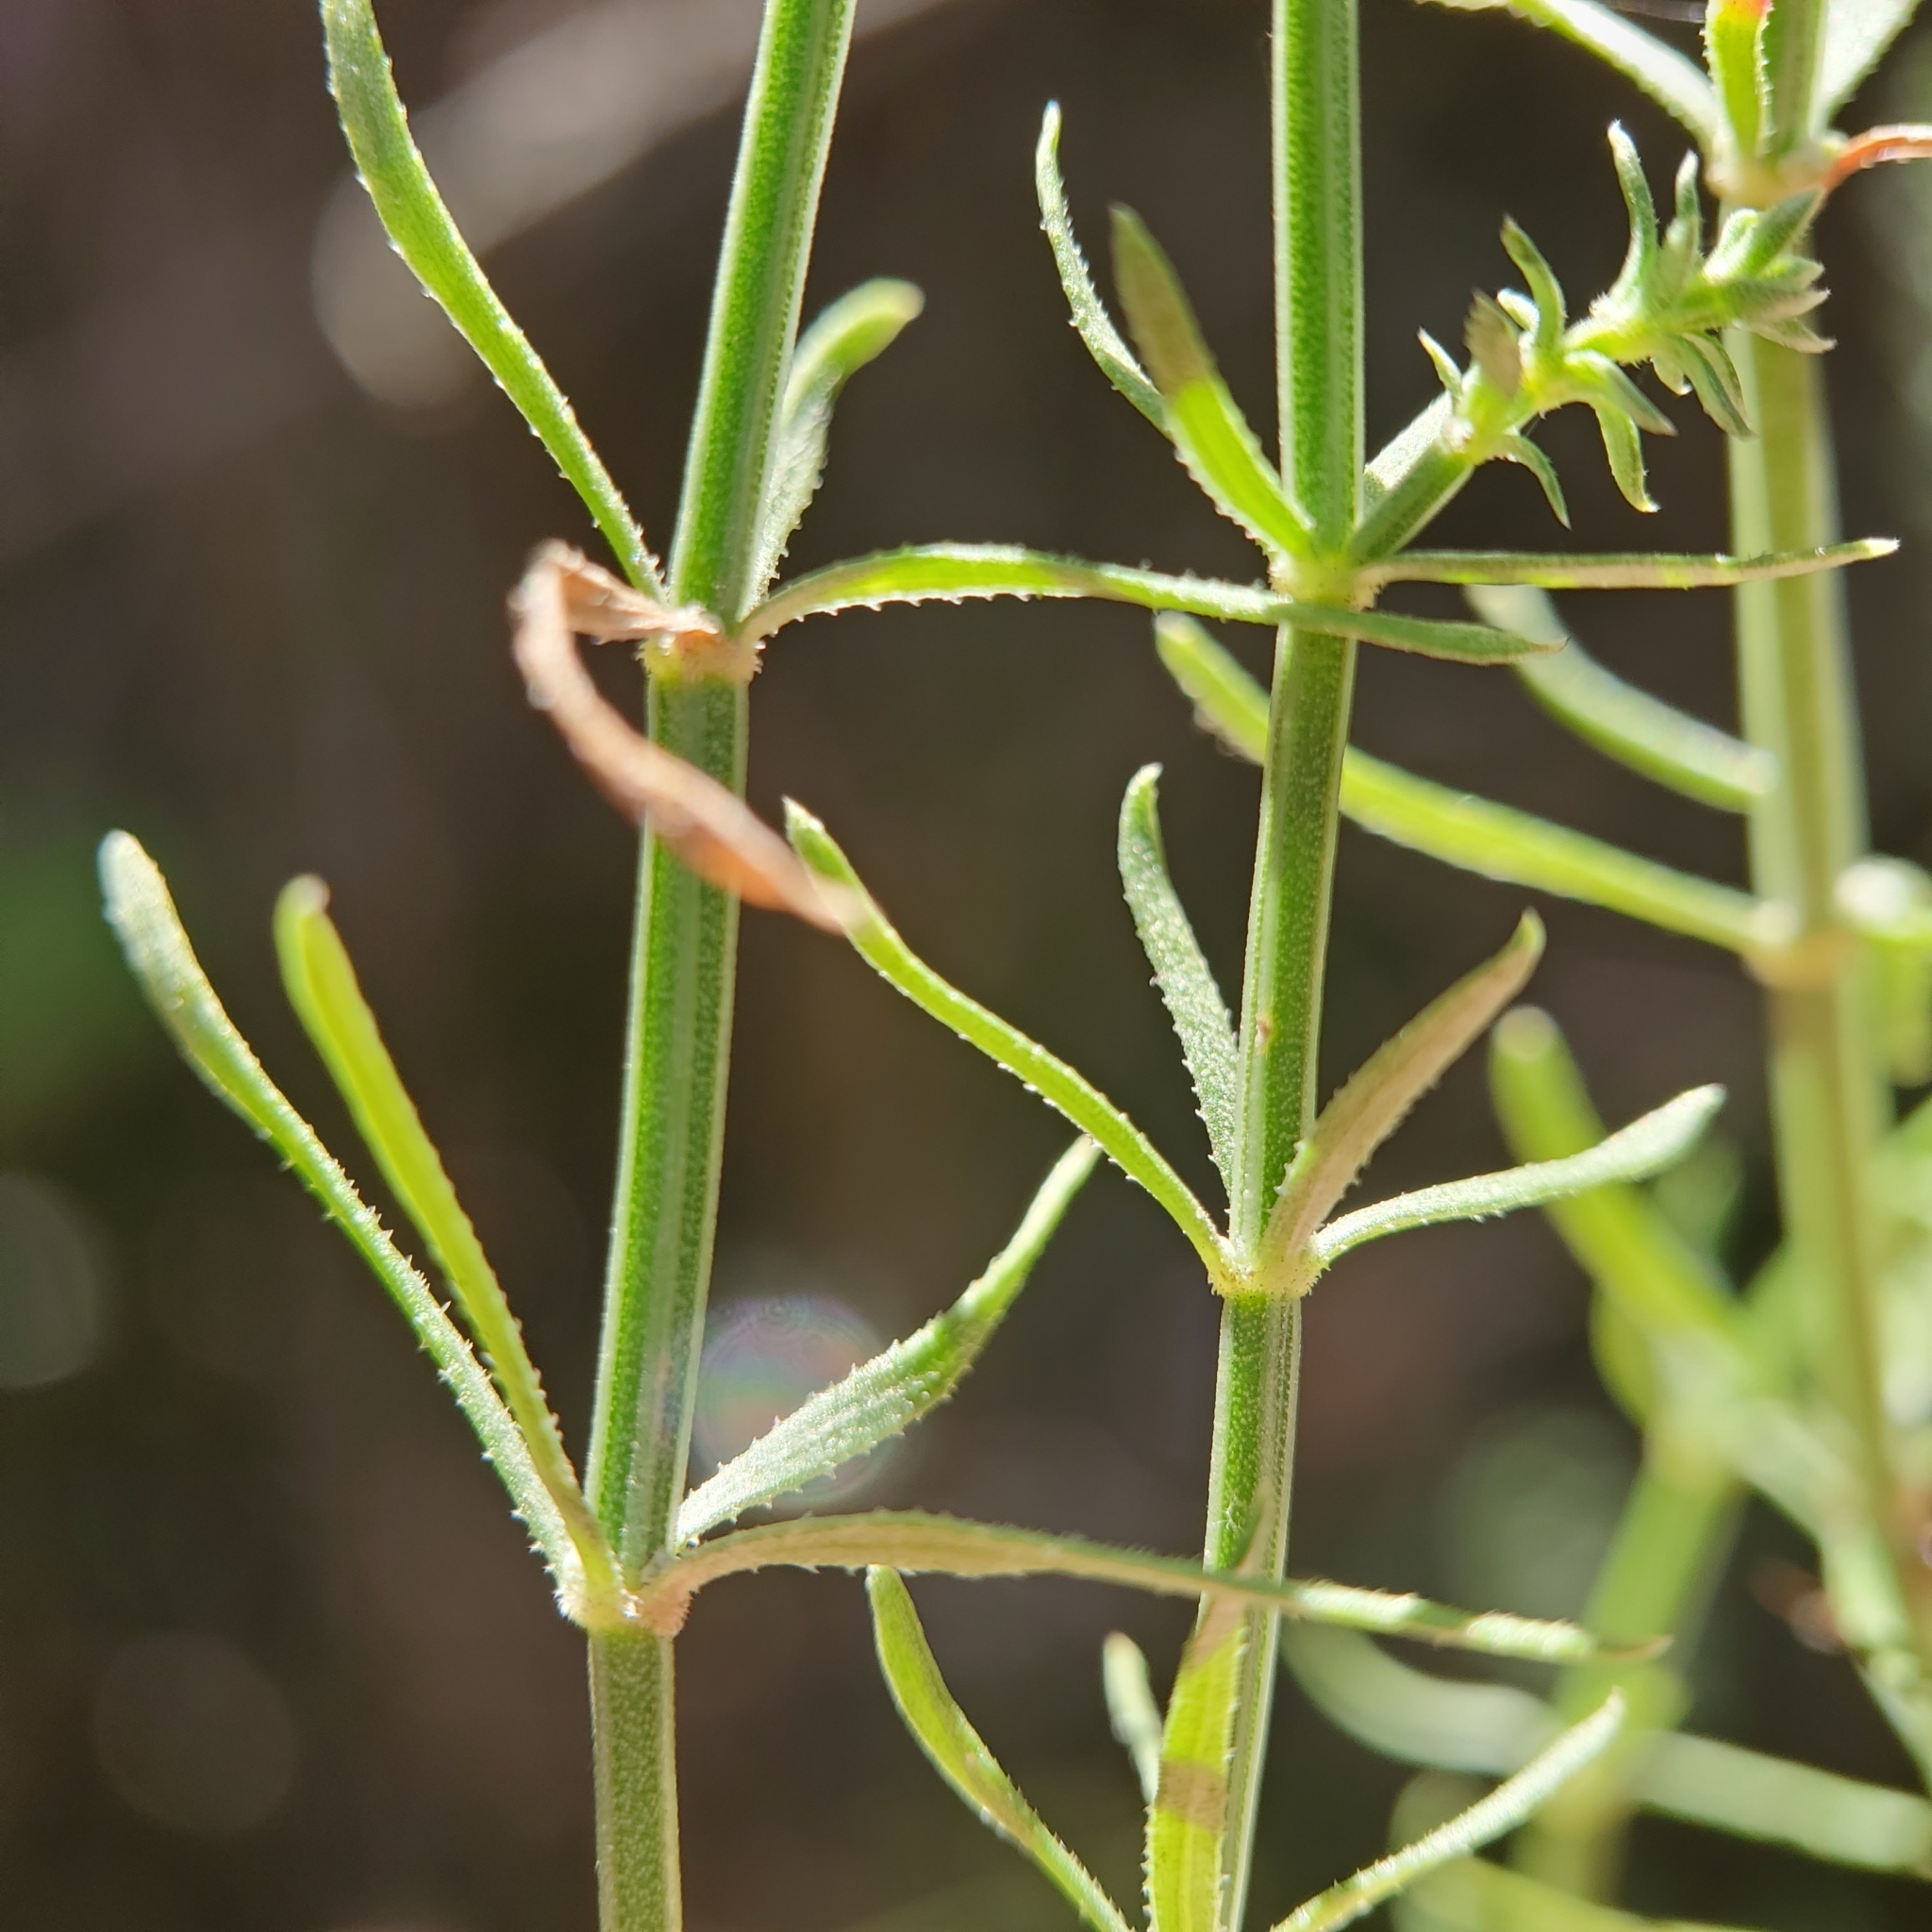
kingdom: Plantae
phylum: Tracheophyta
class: Magnoliopsida
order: Gentianales
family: Rubiaceae
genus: Galium
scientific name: Galium angustifolium
